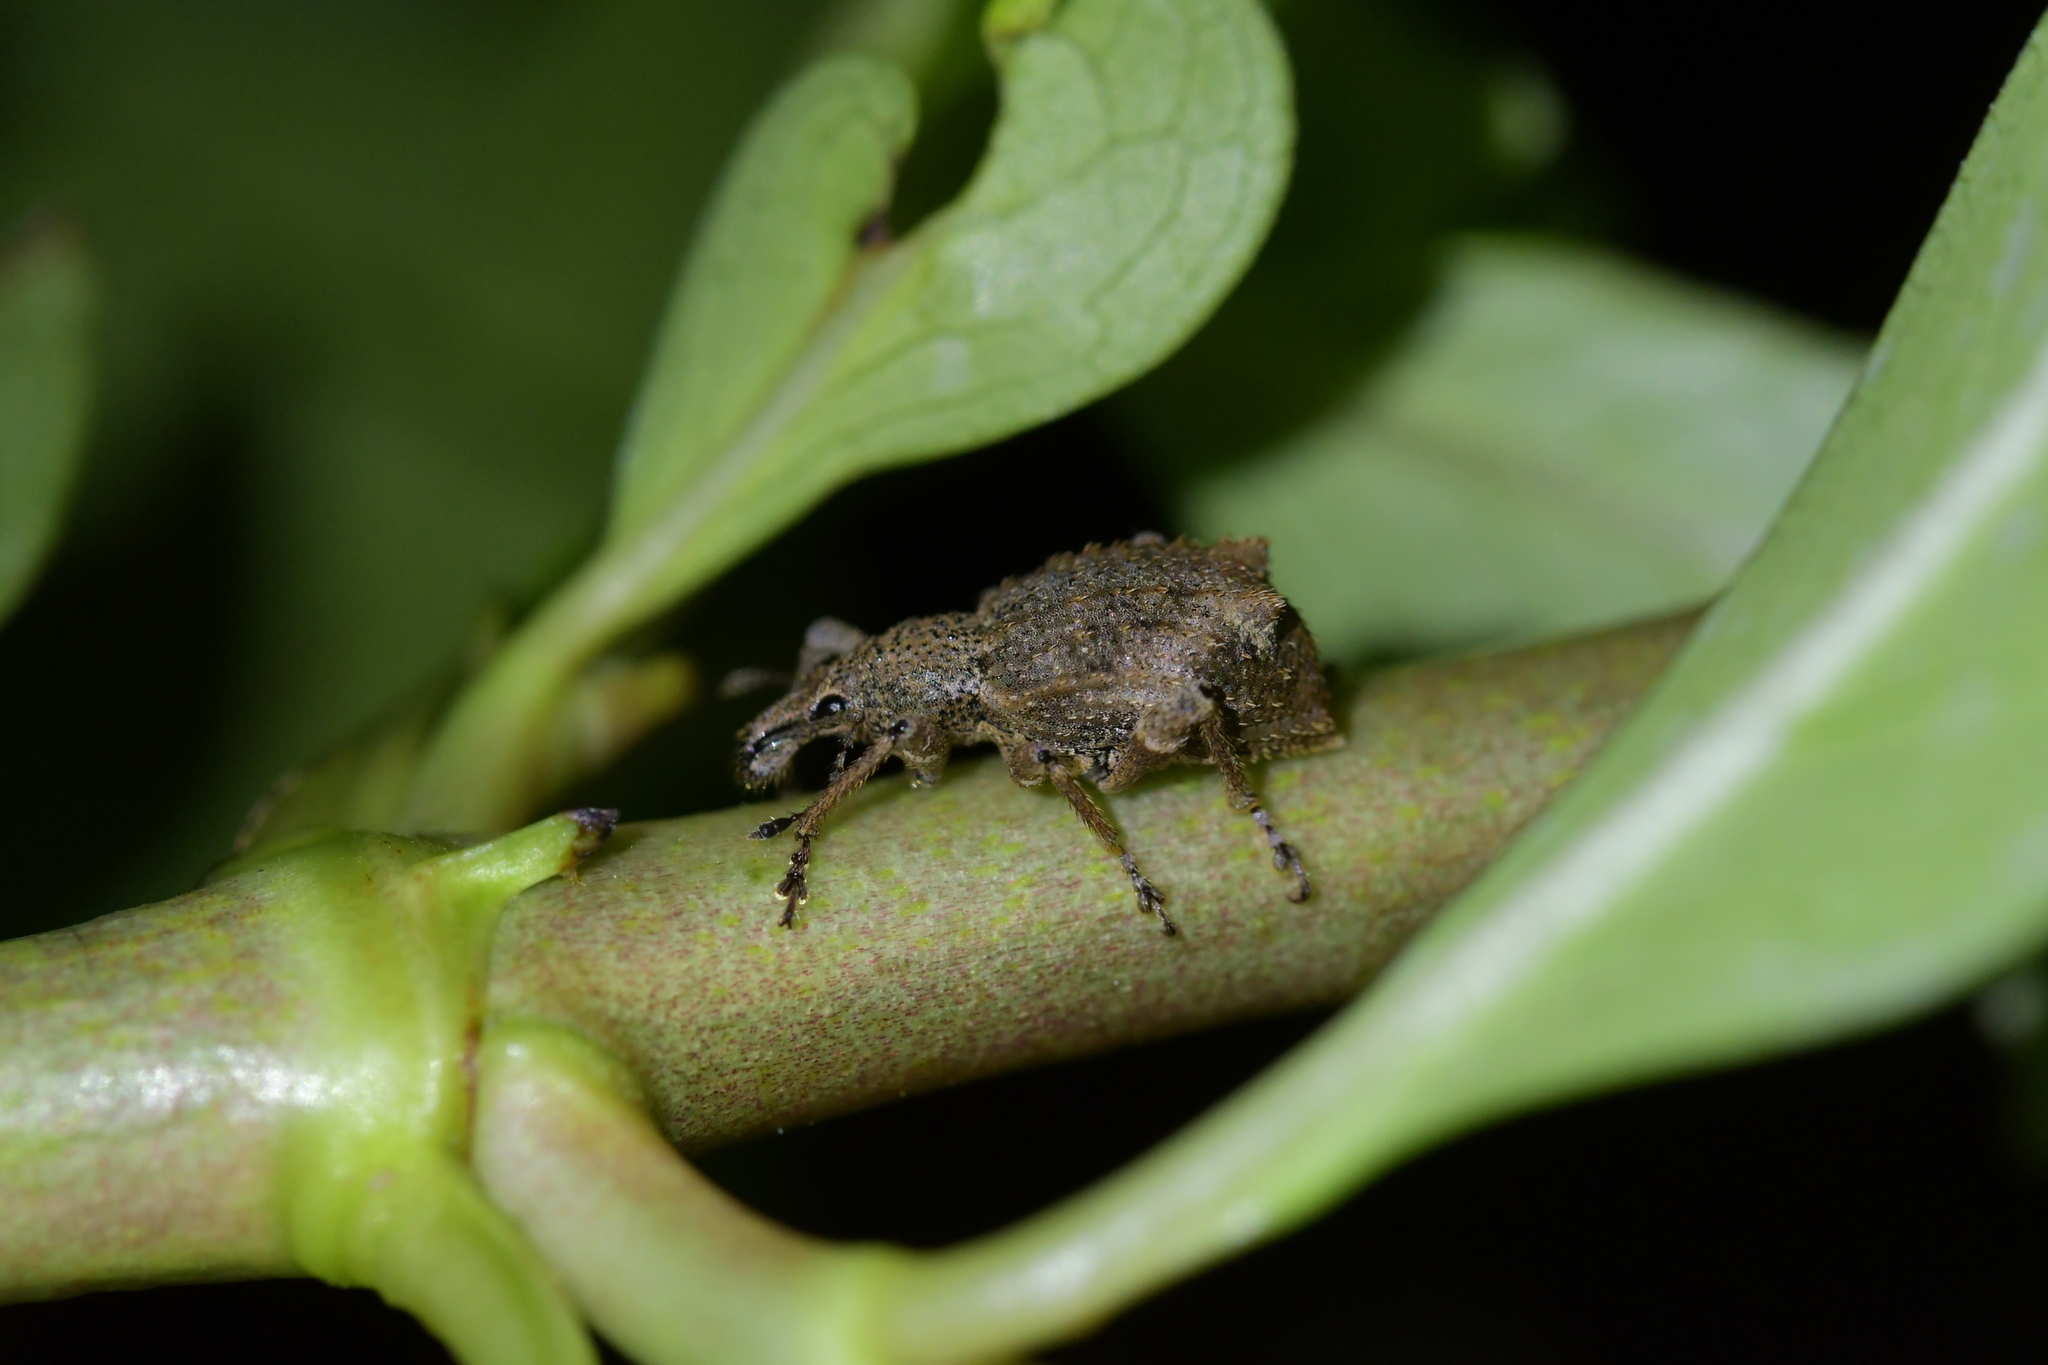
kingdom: Animalia
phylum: Arthropoda
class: Insecta
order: Coleoptera
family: Curculionidae
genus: Catoptes
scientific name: Catoptes binodis
